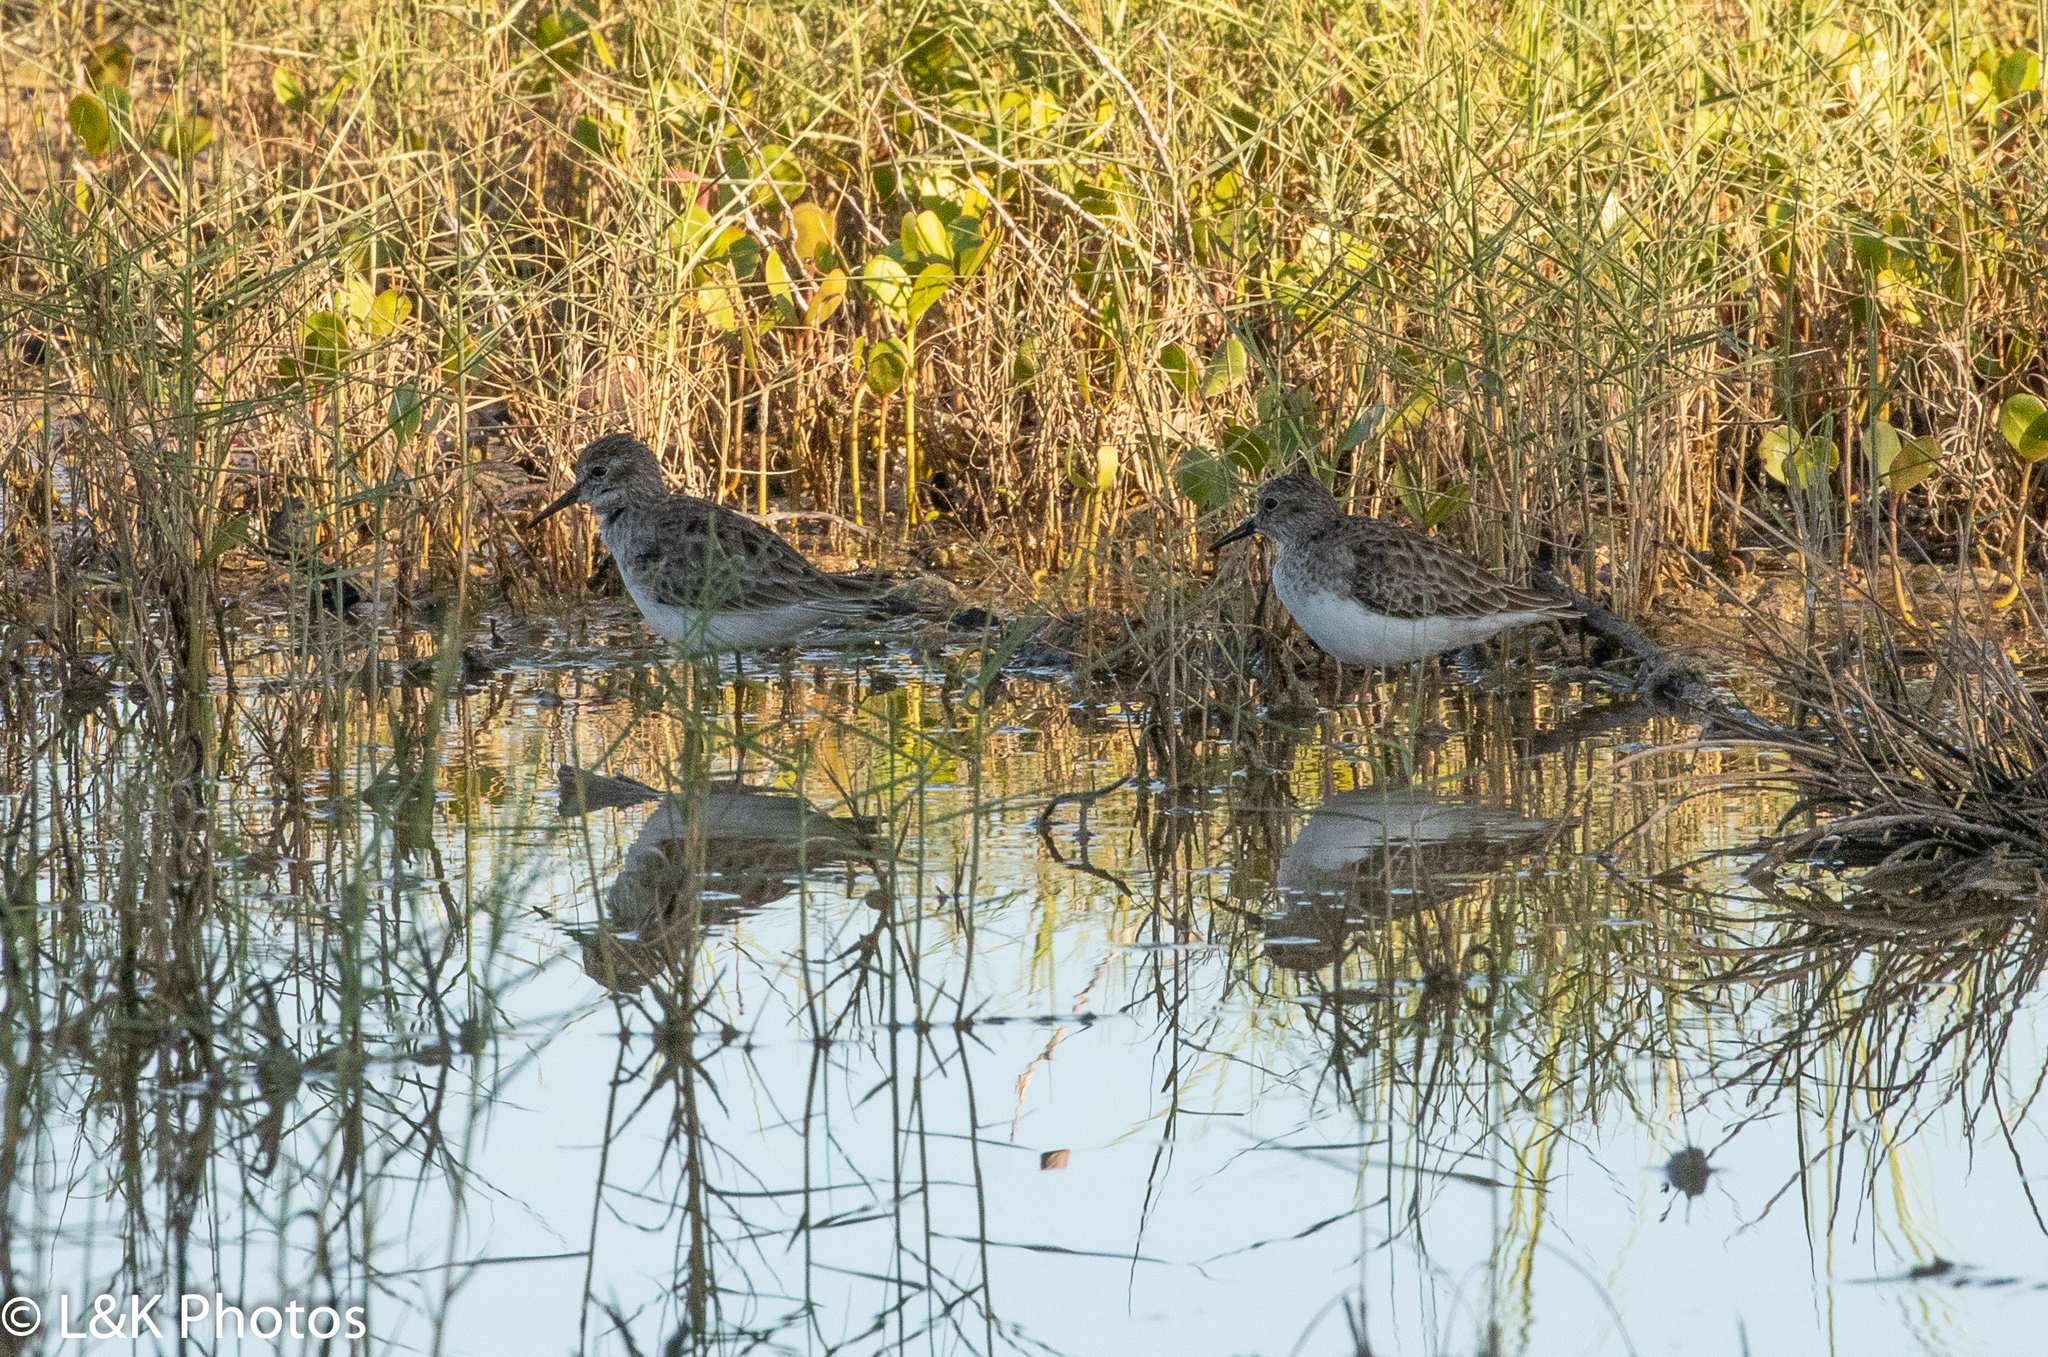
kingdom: Animalia
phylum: Chordata
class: Aves
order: Charadriiformes
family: Scolopacidae
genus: Calidris
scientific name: Calidris minutilla
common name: Least sandpiper
